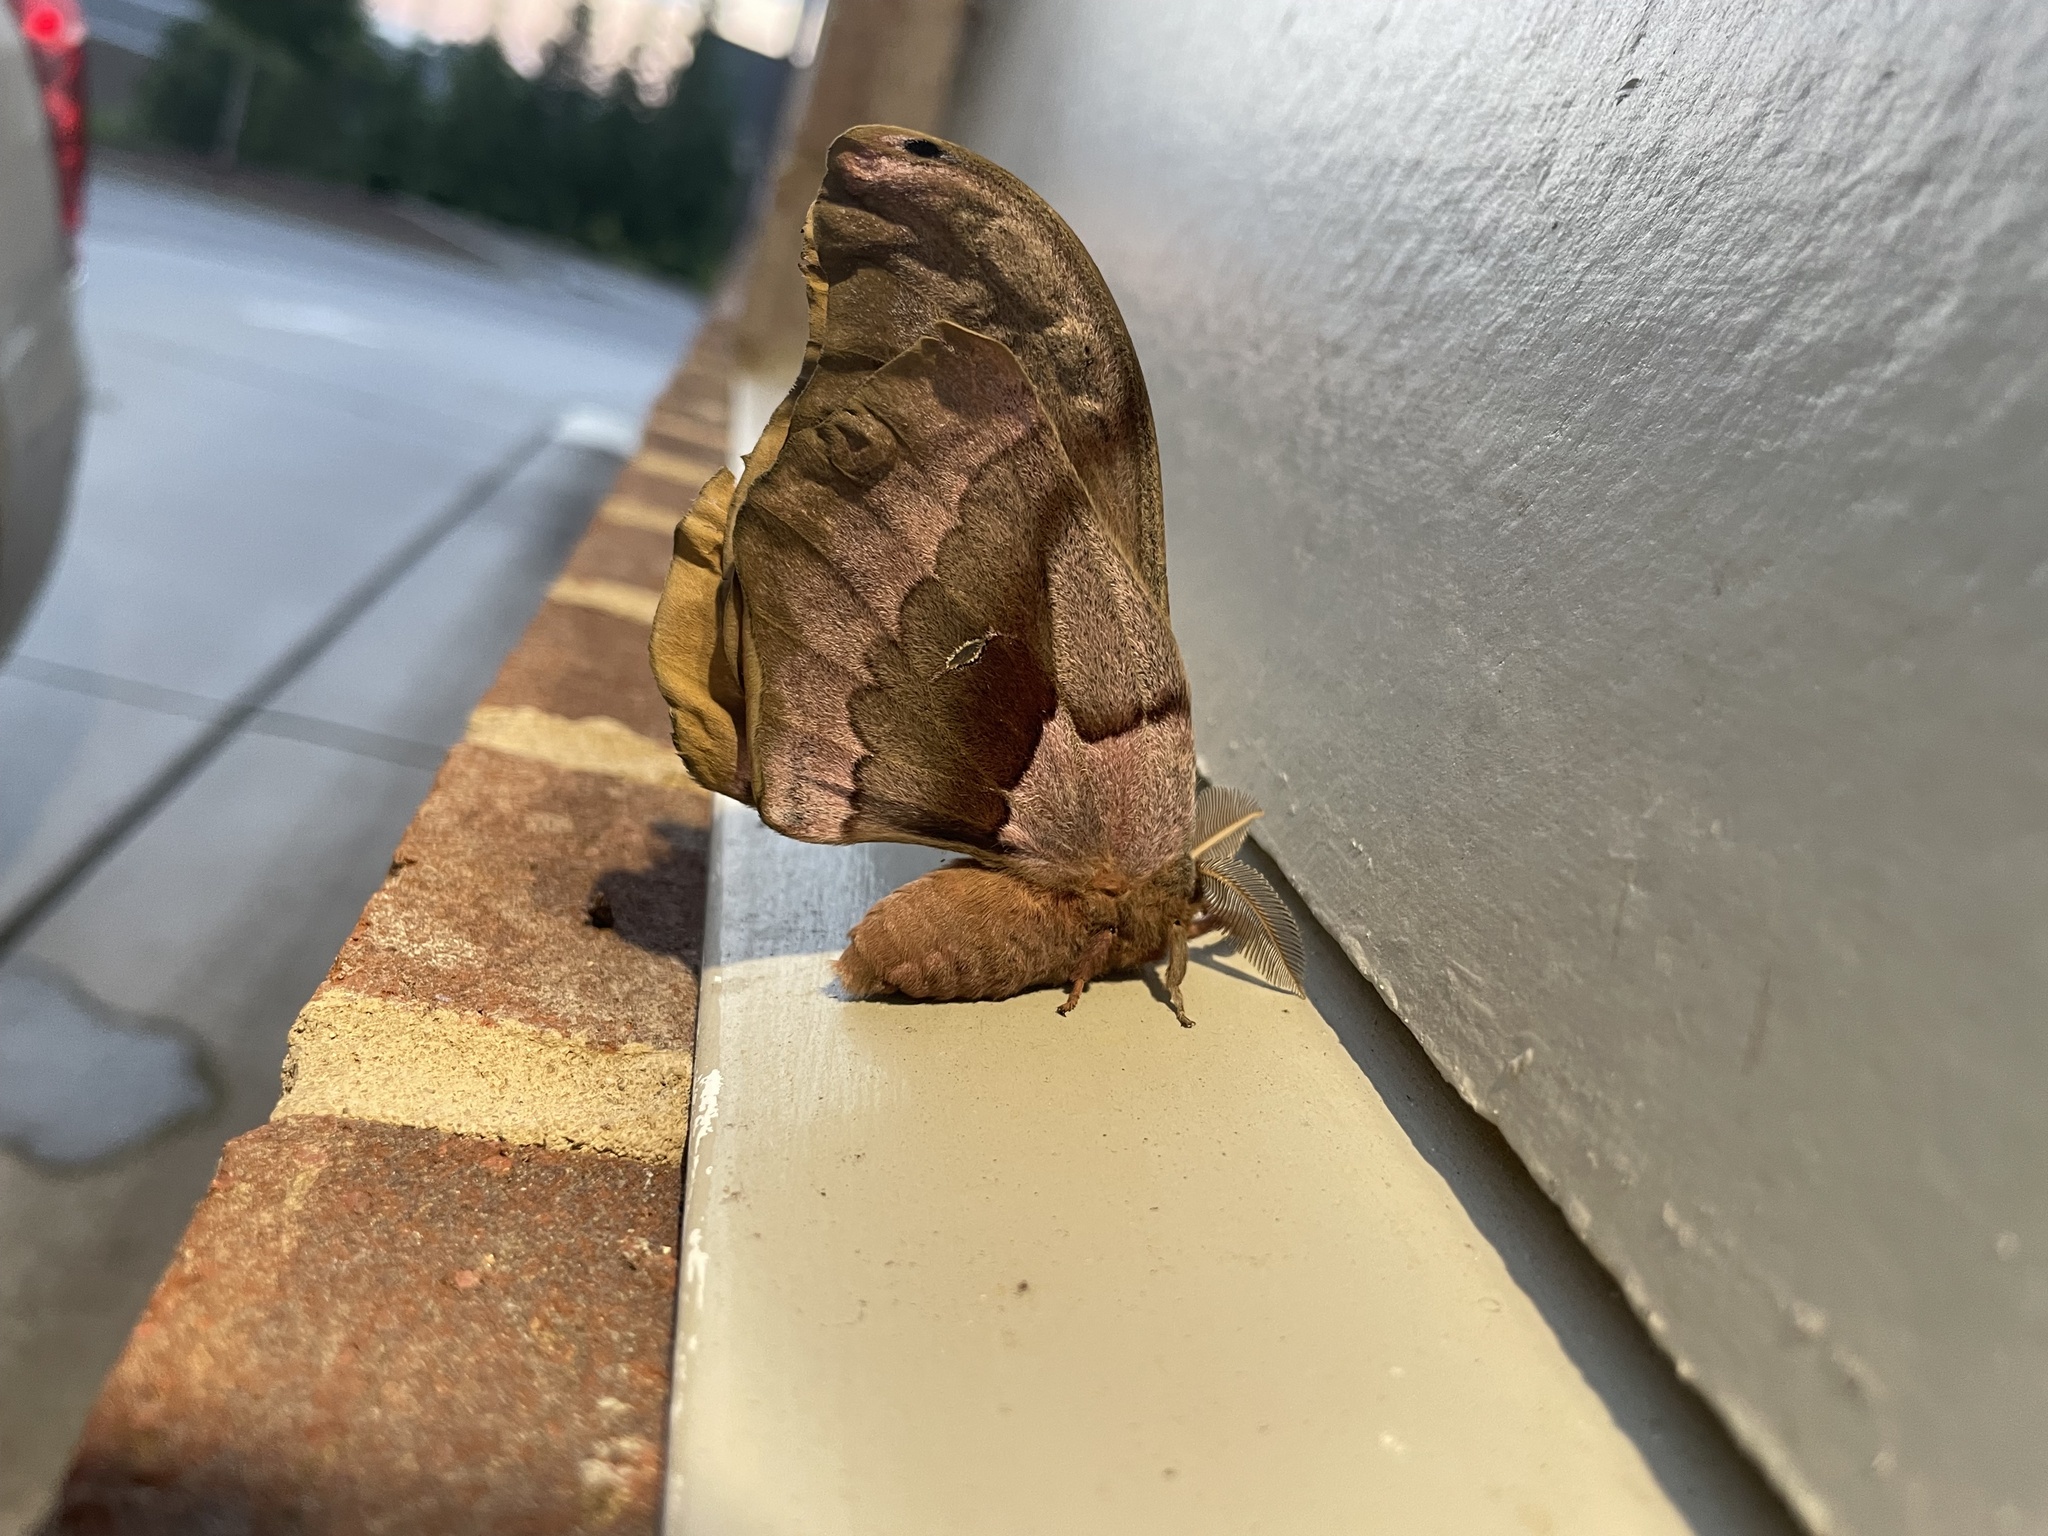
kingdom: Animalia
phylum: Arthropoda
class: Insecta
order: Lepidoptera
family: Saturniidae
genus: Antheraea
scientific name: Antheraea polyphemus
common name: Polyphemus moth
